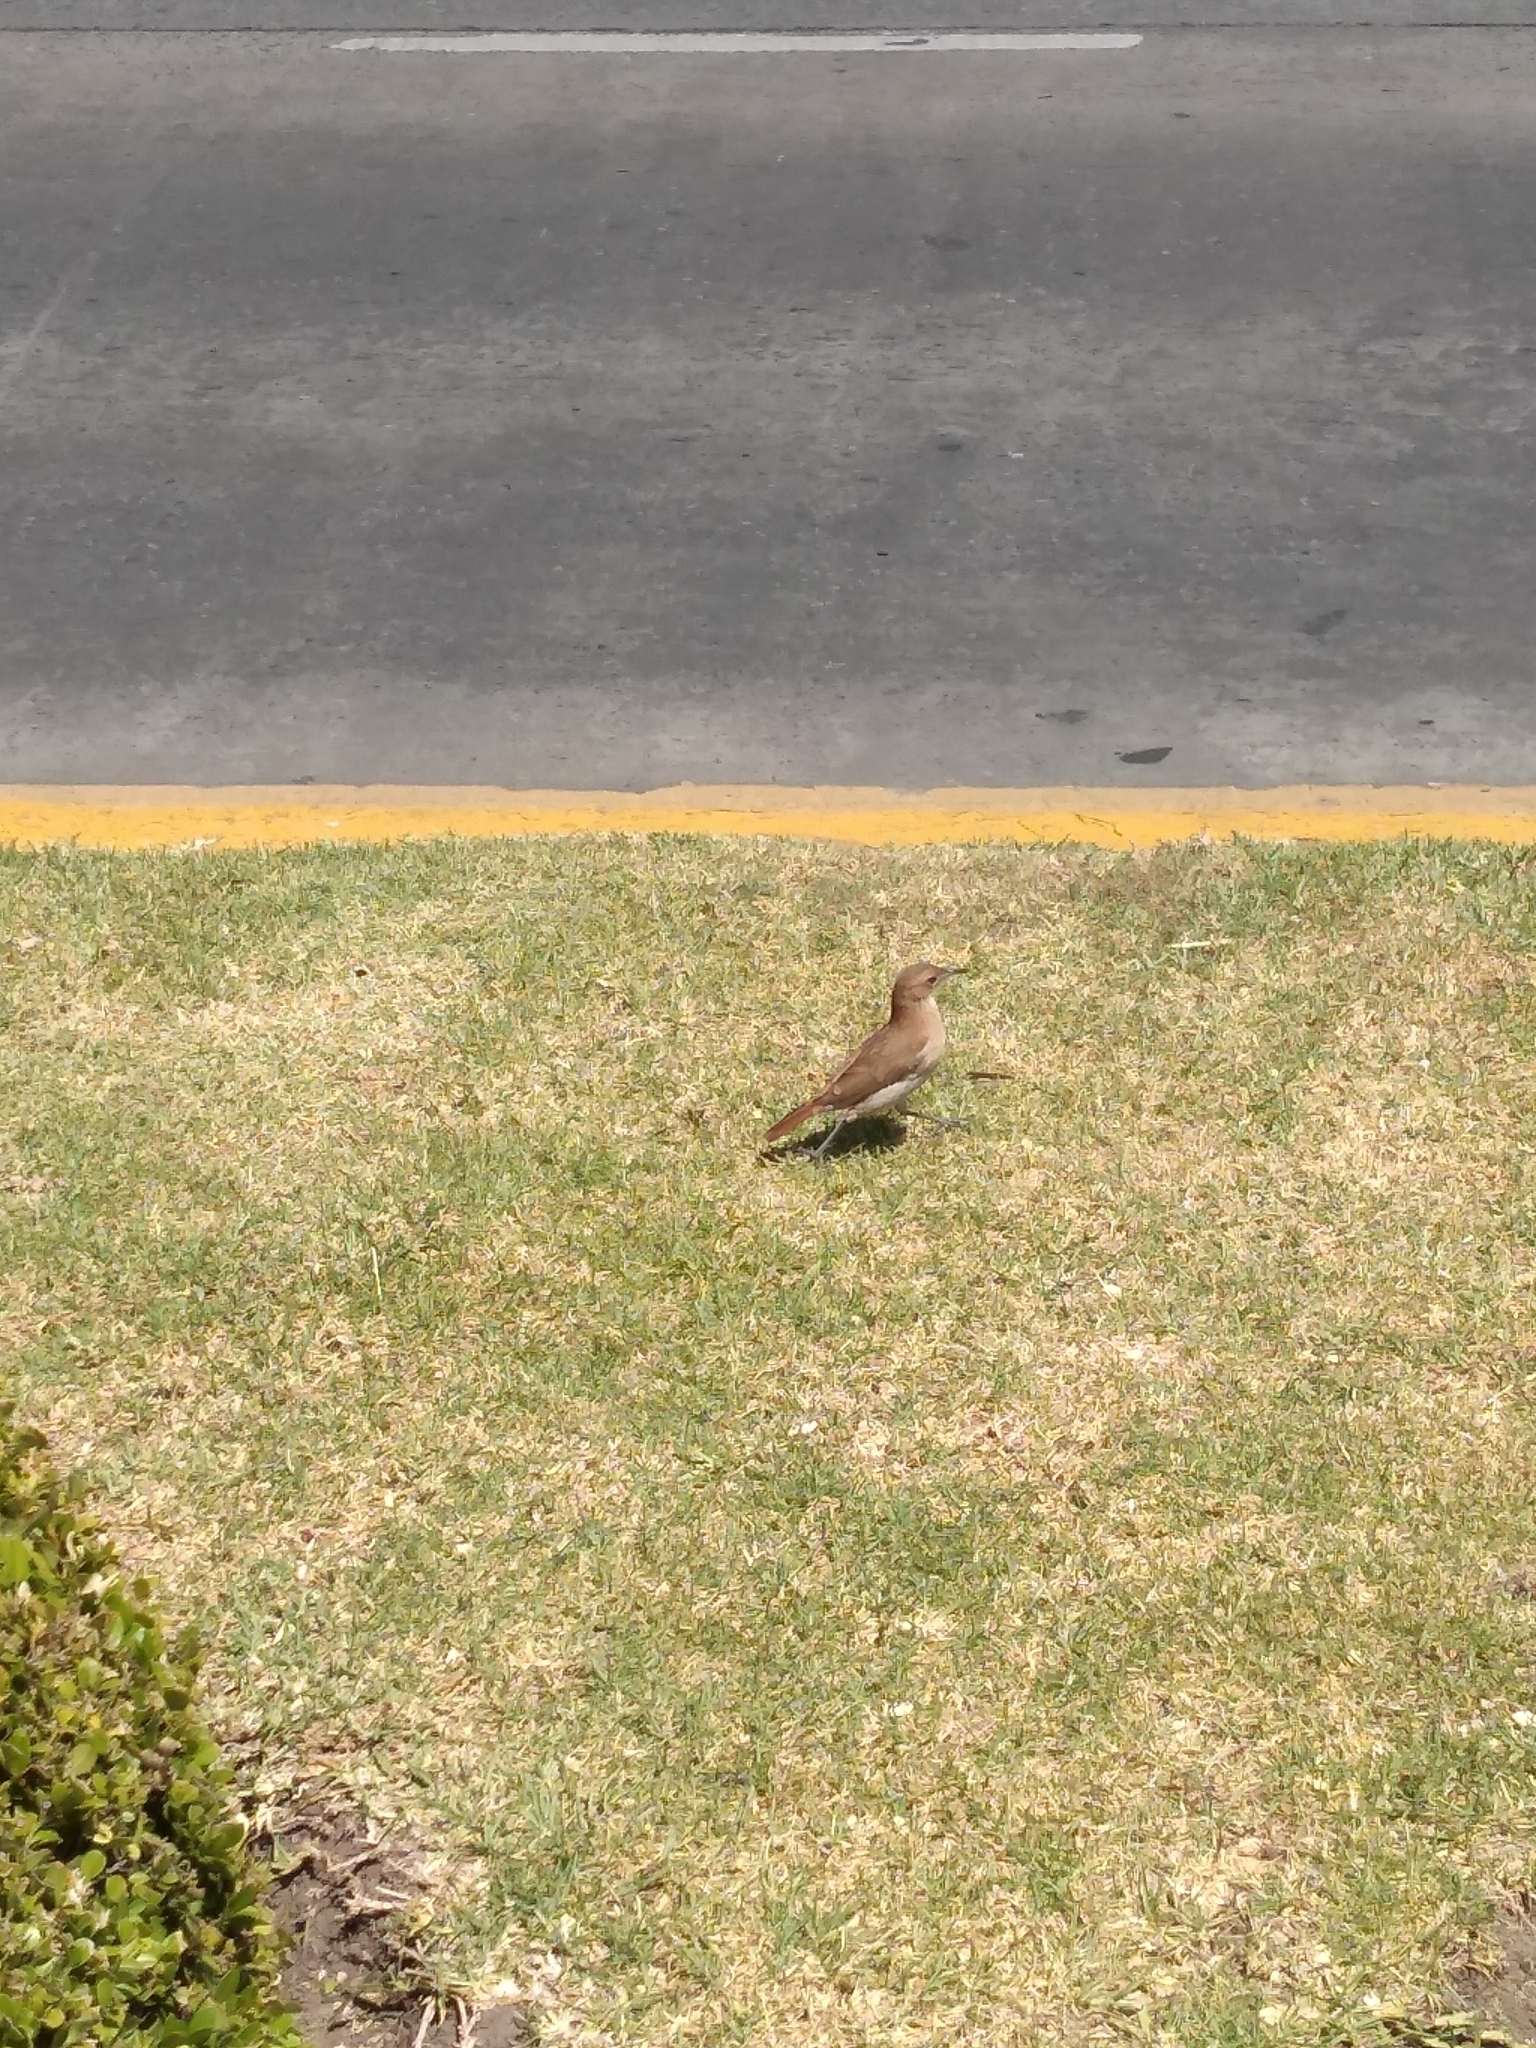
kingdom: Animalia
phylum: Chordata
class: Aves
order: Passeriformes
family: Furnariidae
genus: Furnarius
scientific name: Furnarius rufus
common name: Rufous hornero
